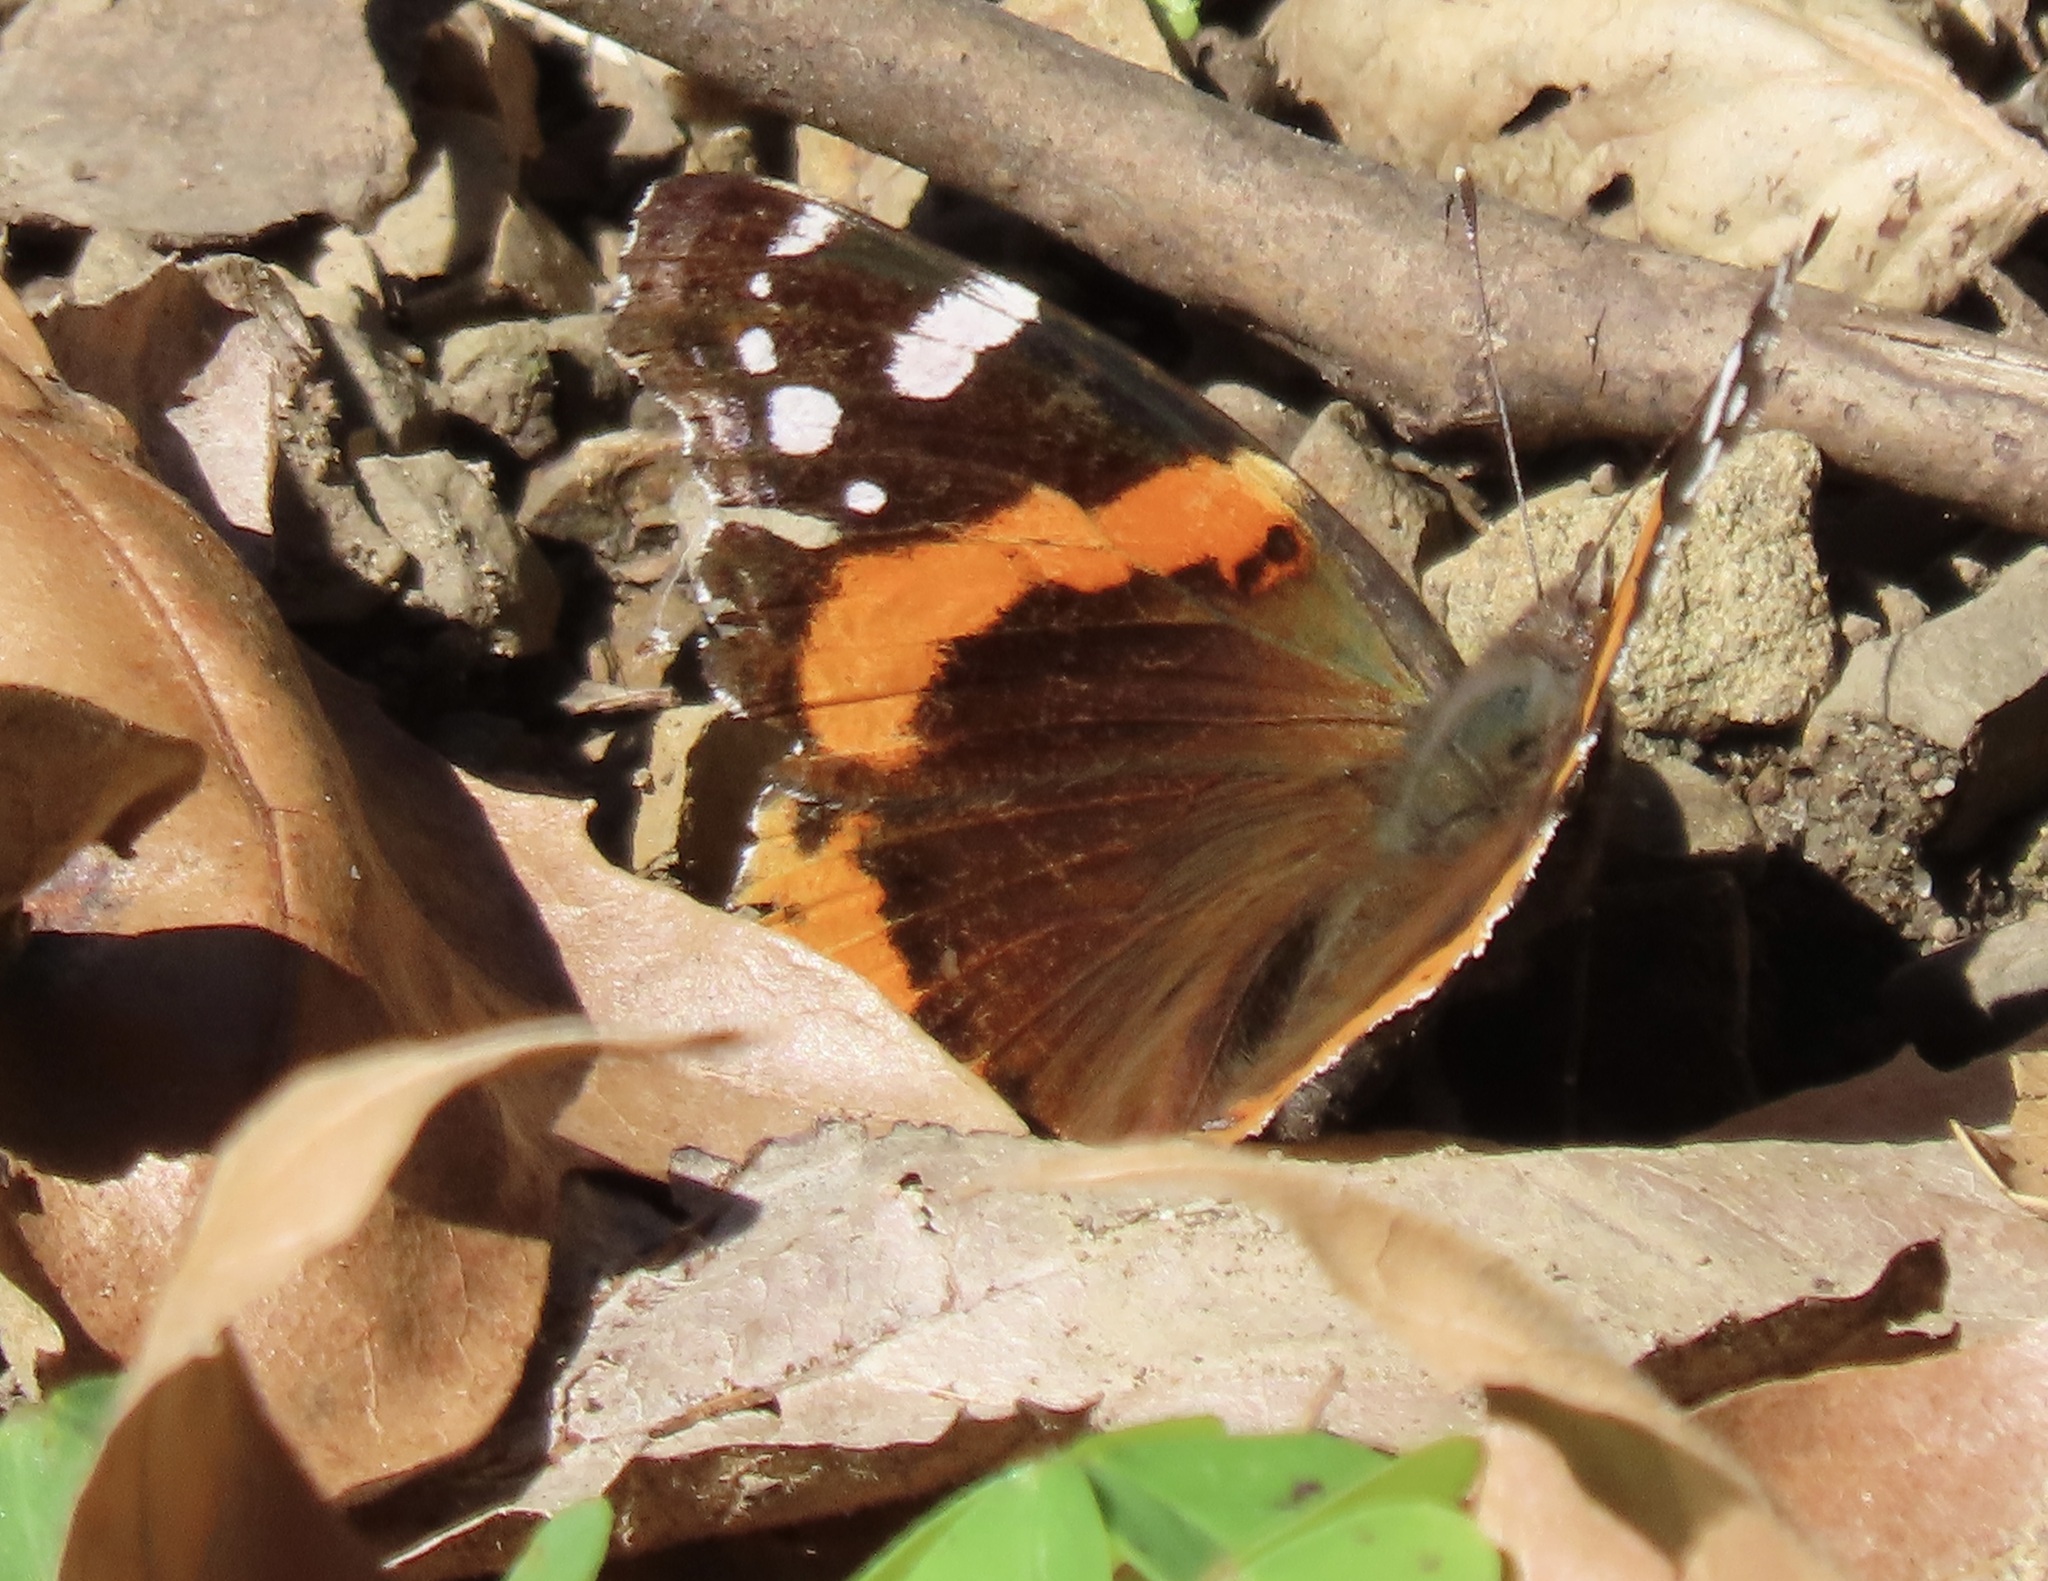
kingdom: Animalia
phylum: Arthropoda
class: Insecta
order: Lepidoptera
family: Nymphalidae
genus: Vanessa
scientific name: Vanessa atalanta
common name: Red admiral
